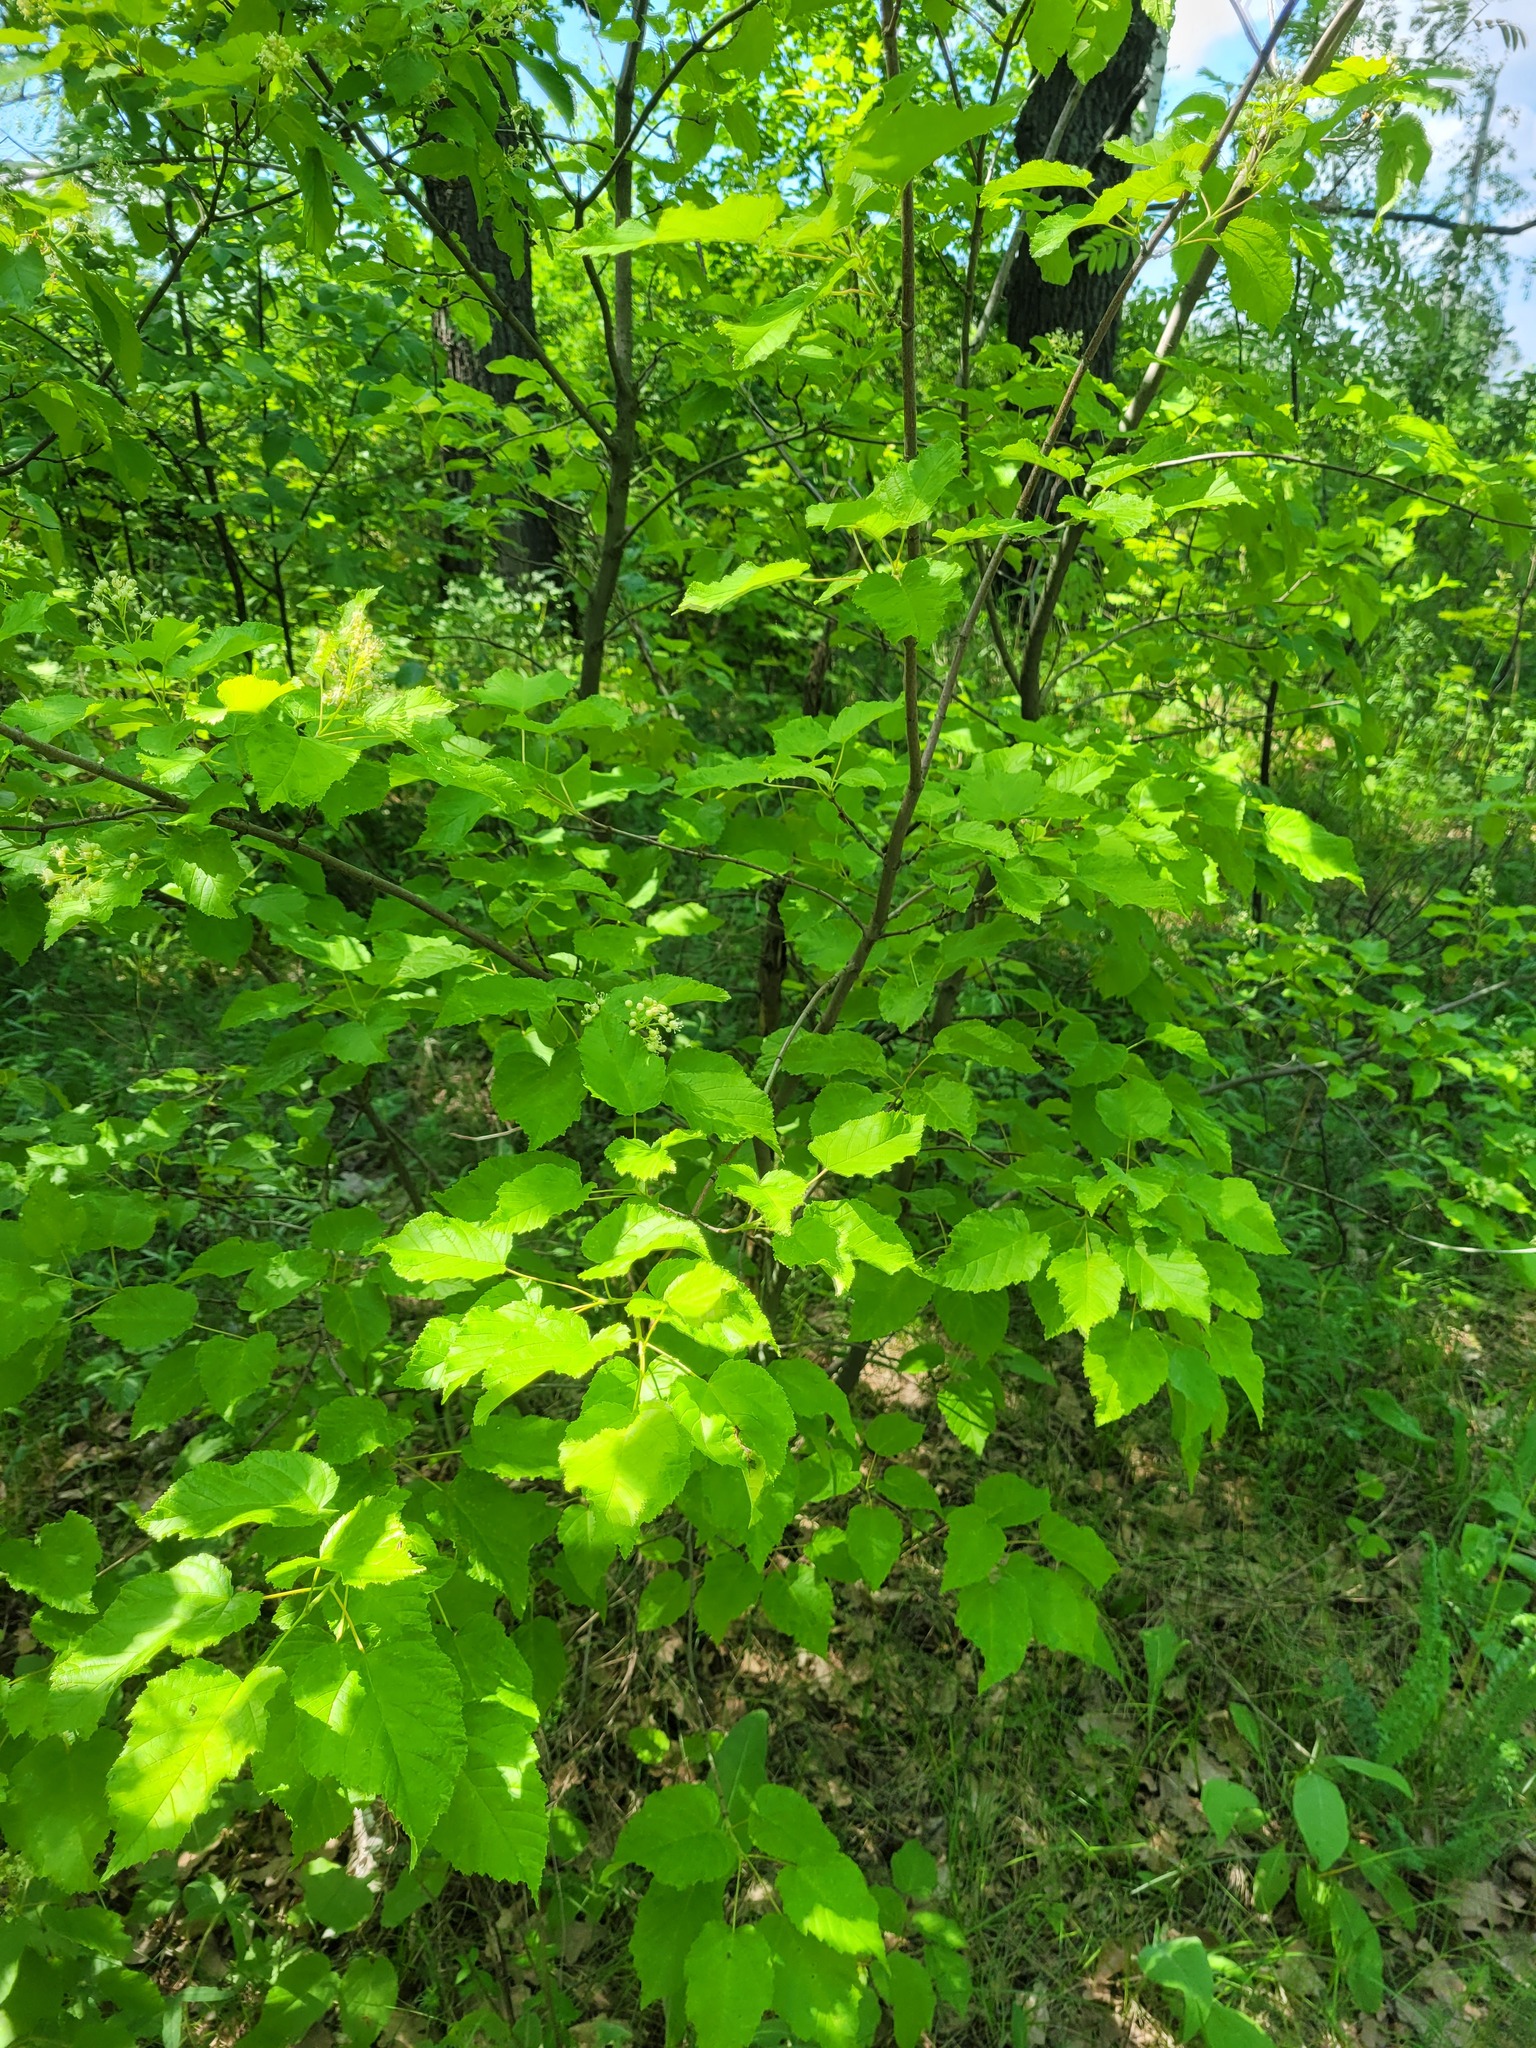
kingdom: Plantae
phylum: Tracheophyta
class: Magnoliopsida
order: Sapindales
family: Sapindaceae
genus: Acer
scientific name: Acer tataricum
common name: Tartar maple
